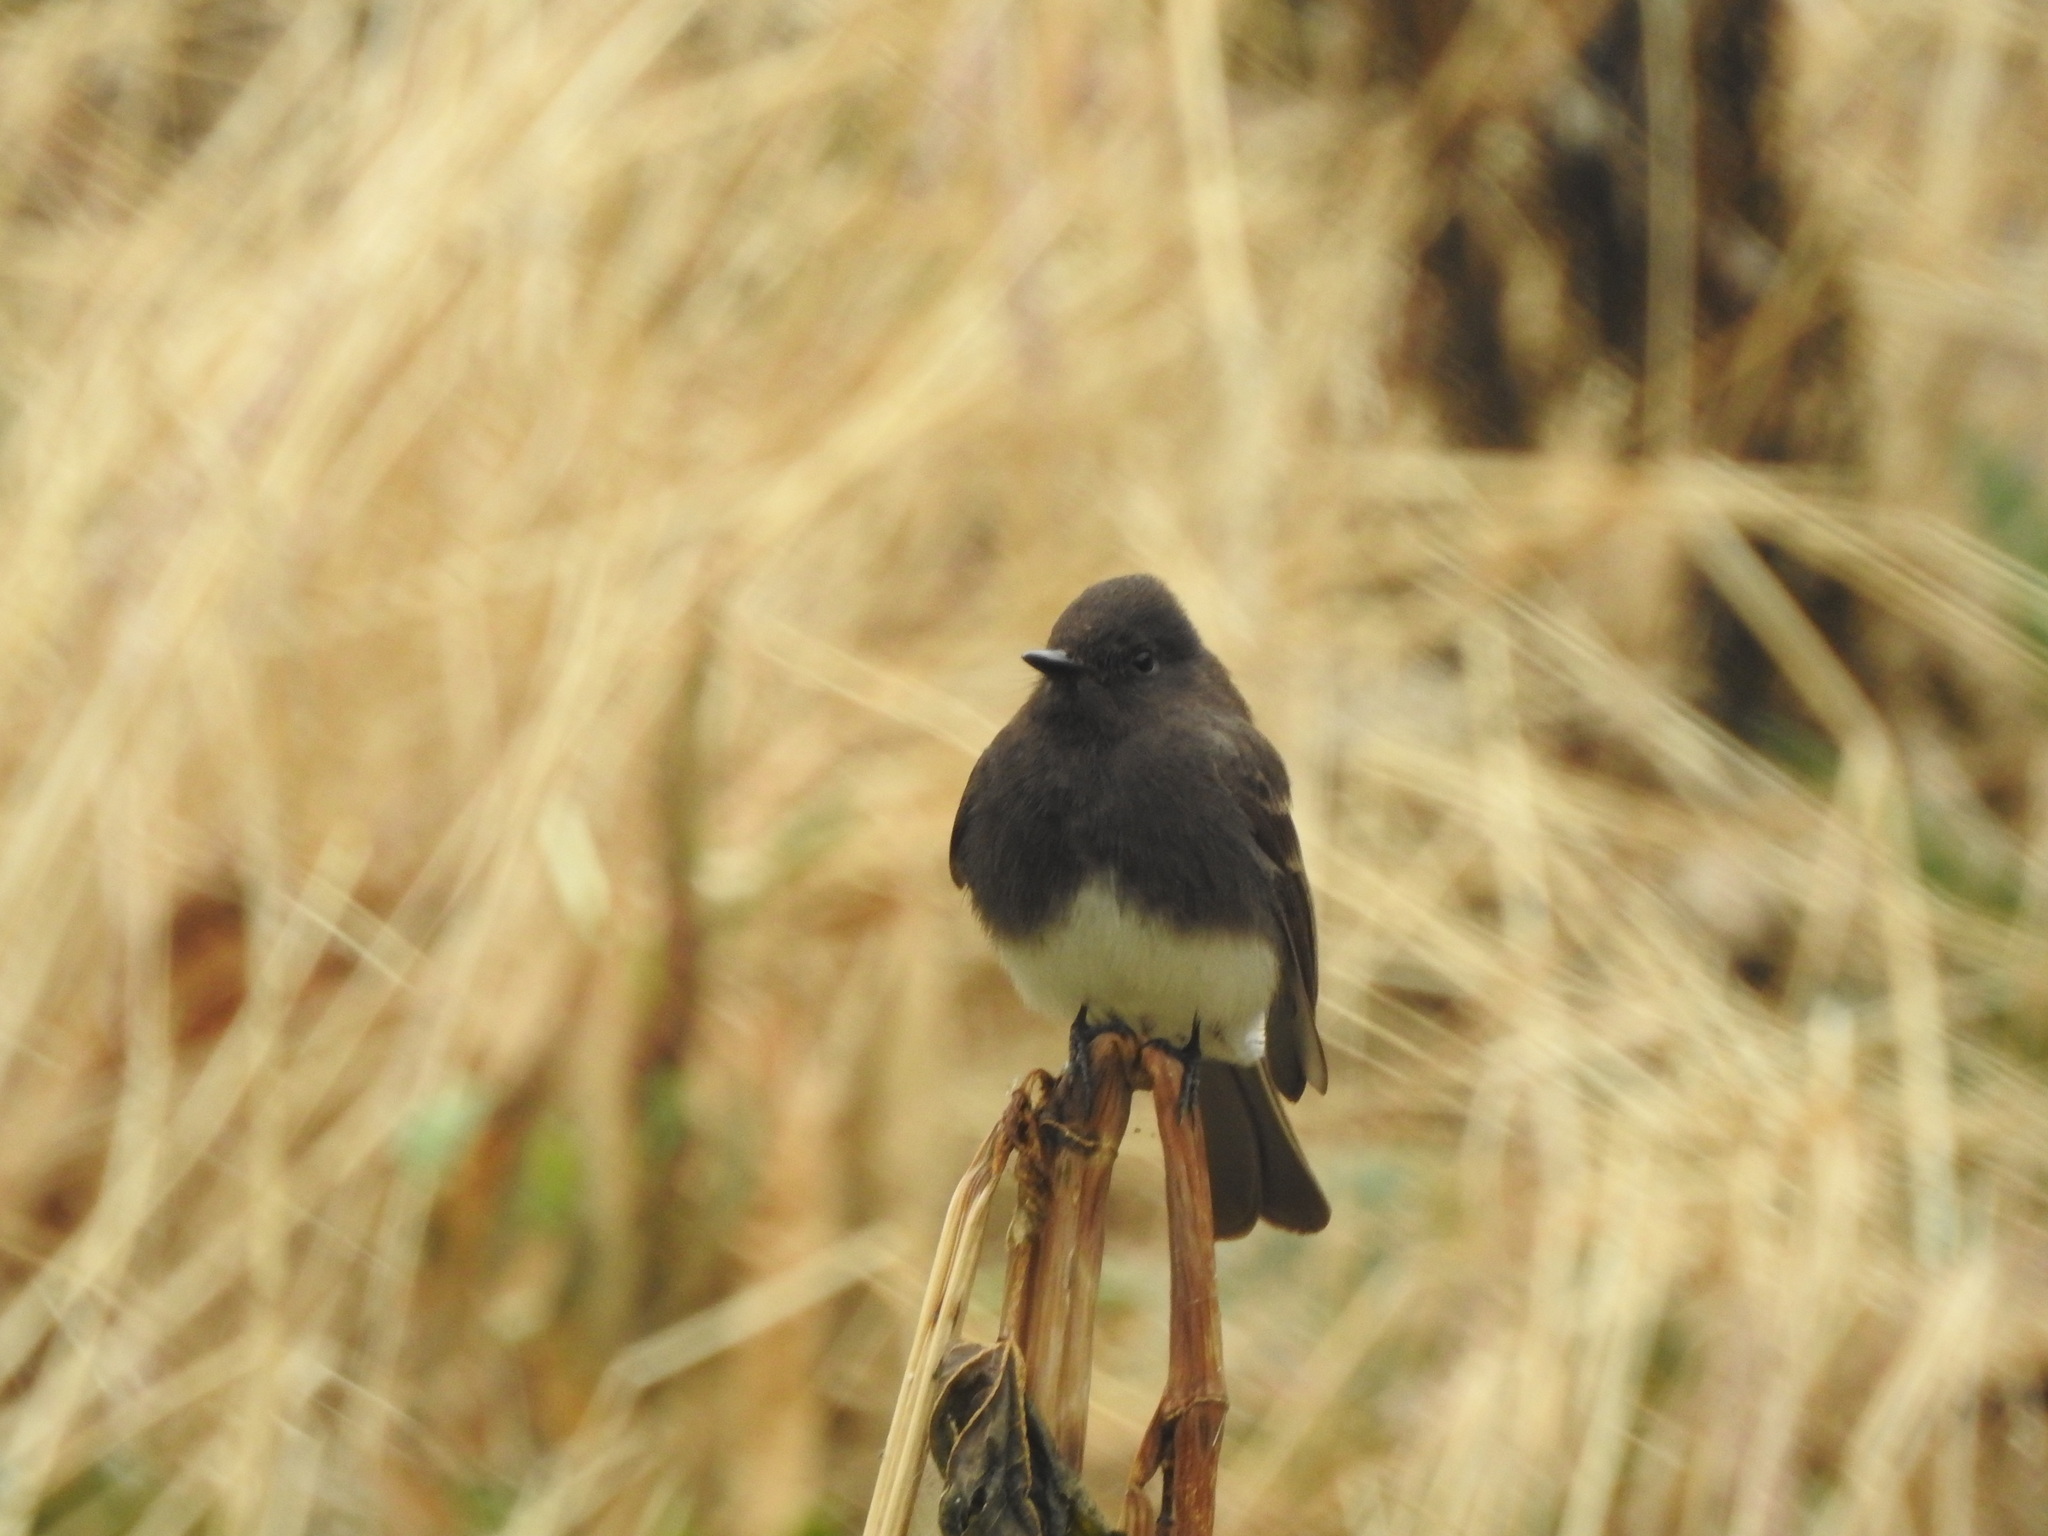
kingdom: Animalia
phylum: Chordata
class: Aves
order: Passeriformes
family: Tyrannidae
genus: Sayornis
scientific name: Sayornis nigricans
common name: Black phoebe
